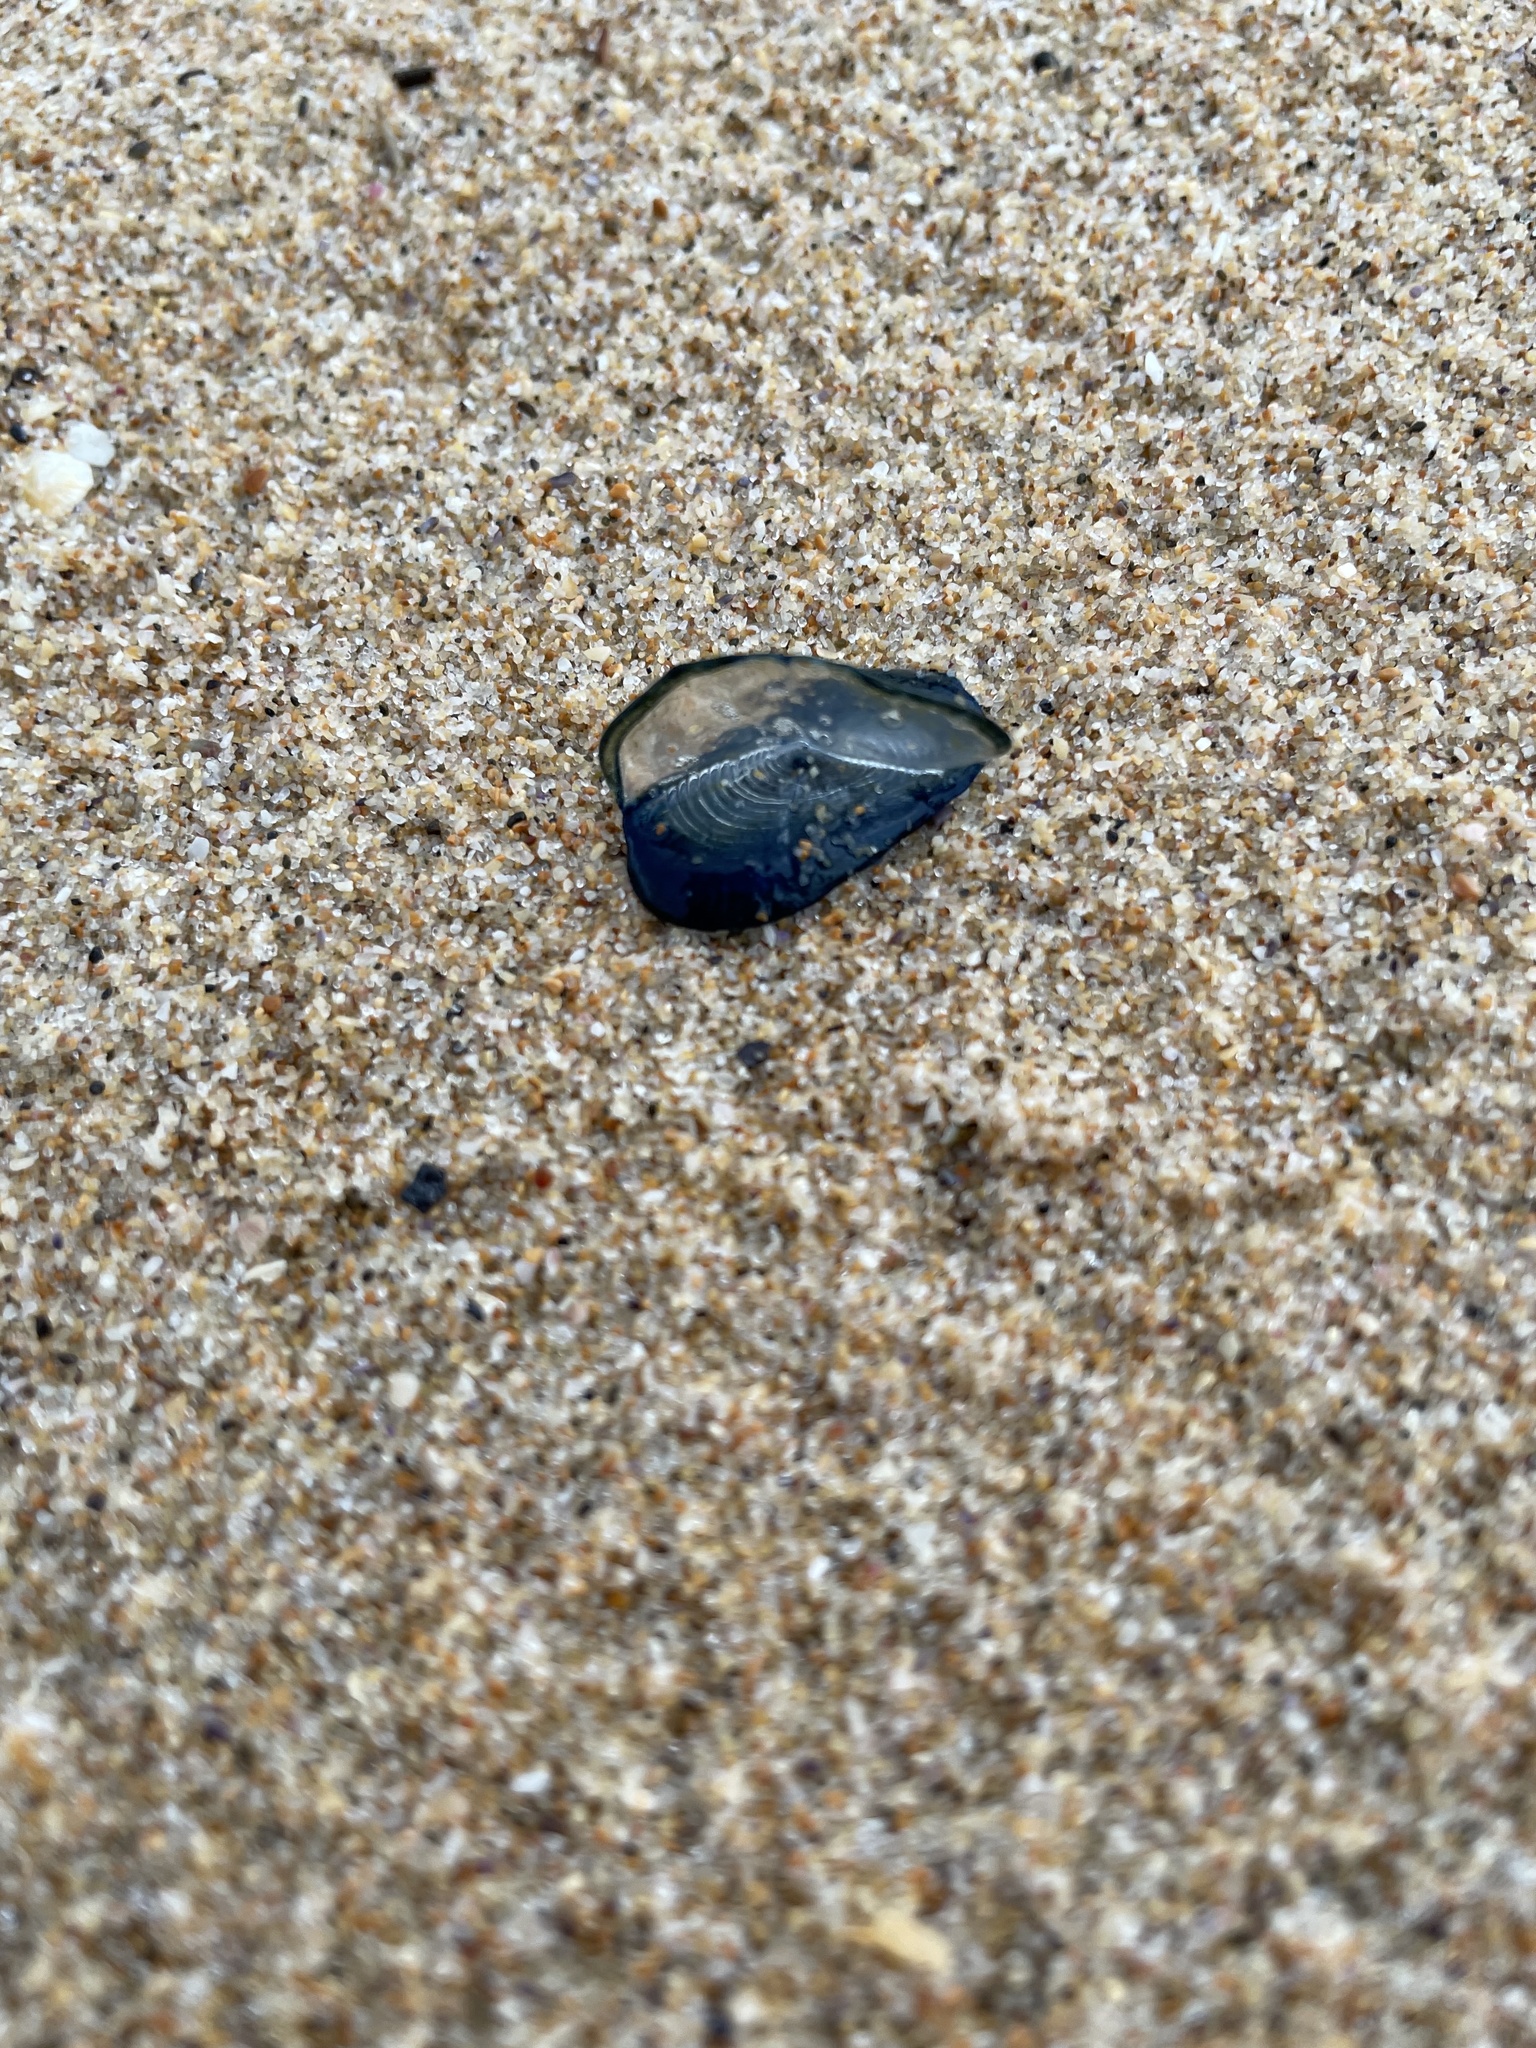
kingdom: Animalia
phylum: Cnidaria
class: Hydrozoa
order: Anthoathecata
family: Porpitidae
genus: Velella
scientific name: Velella velella
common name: By-the-wind-sailor
